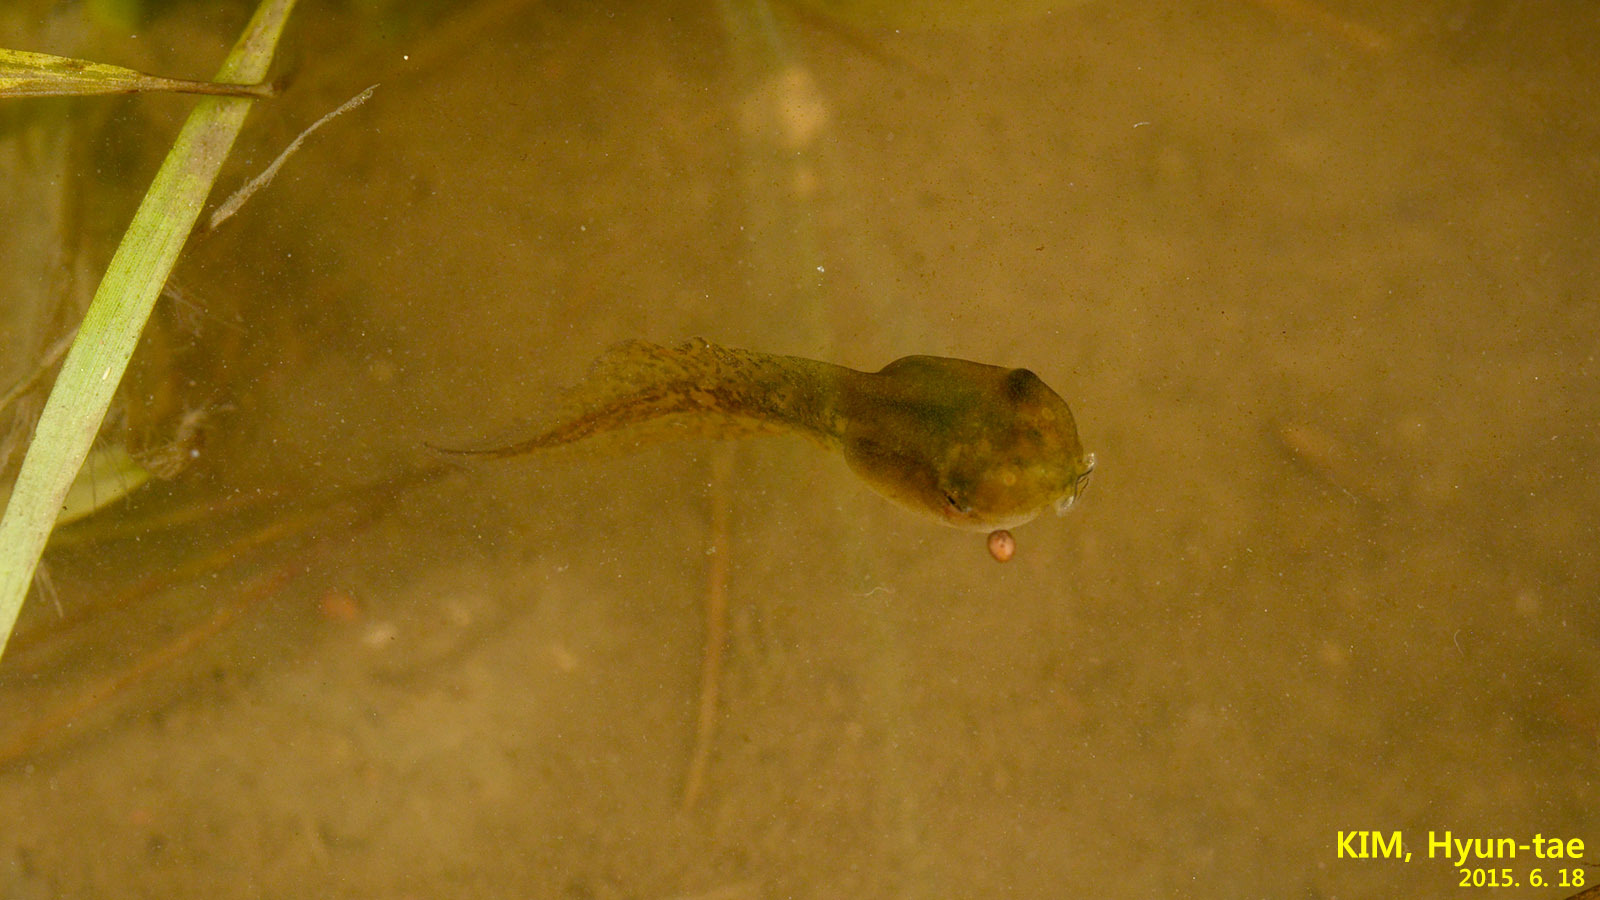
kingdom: Animalia
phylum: Chordata
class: Amphibia
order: Anura
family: Hylidae
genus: Dryophytes
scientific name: Dryophytes immaculatus
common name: North china treefrog
